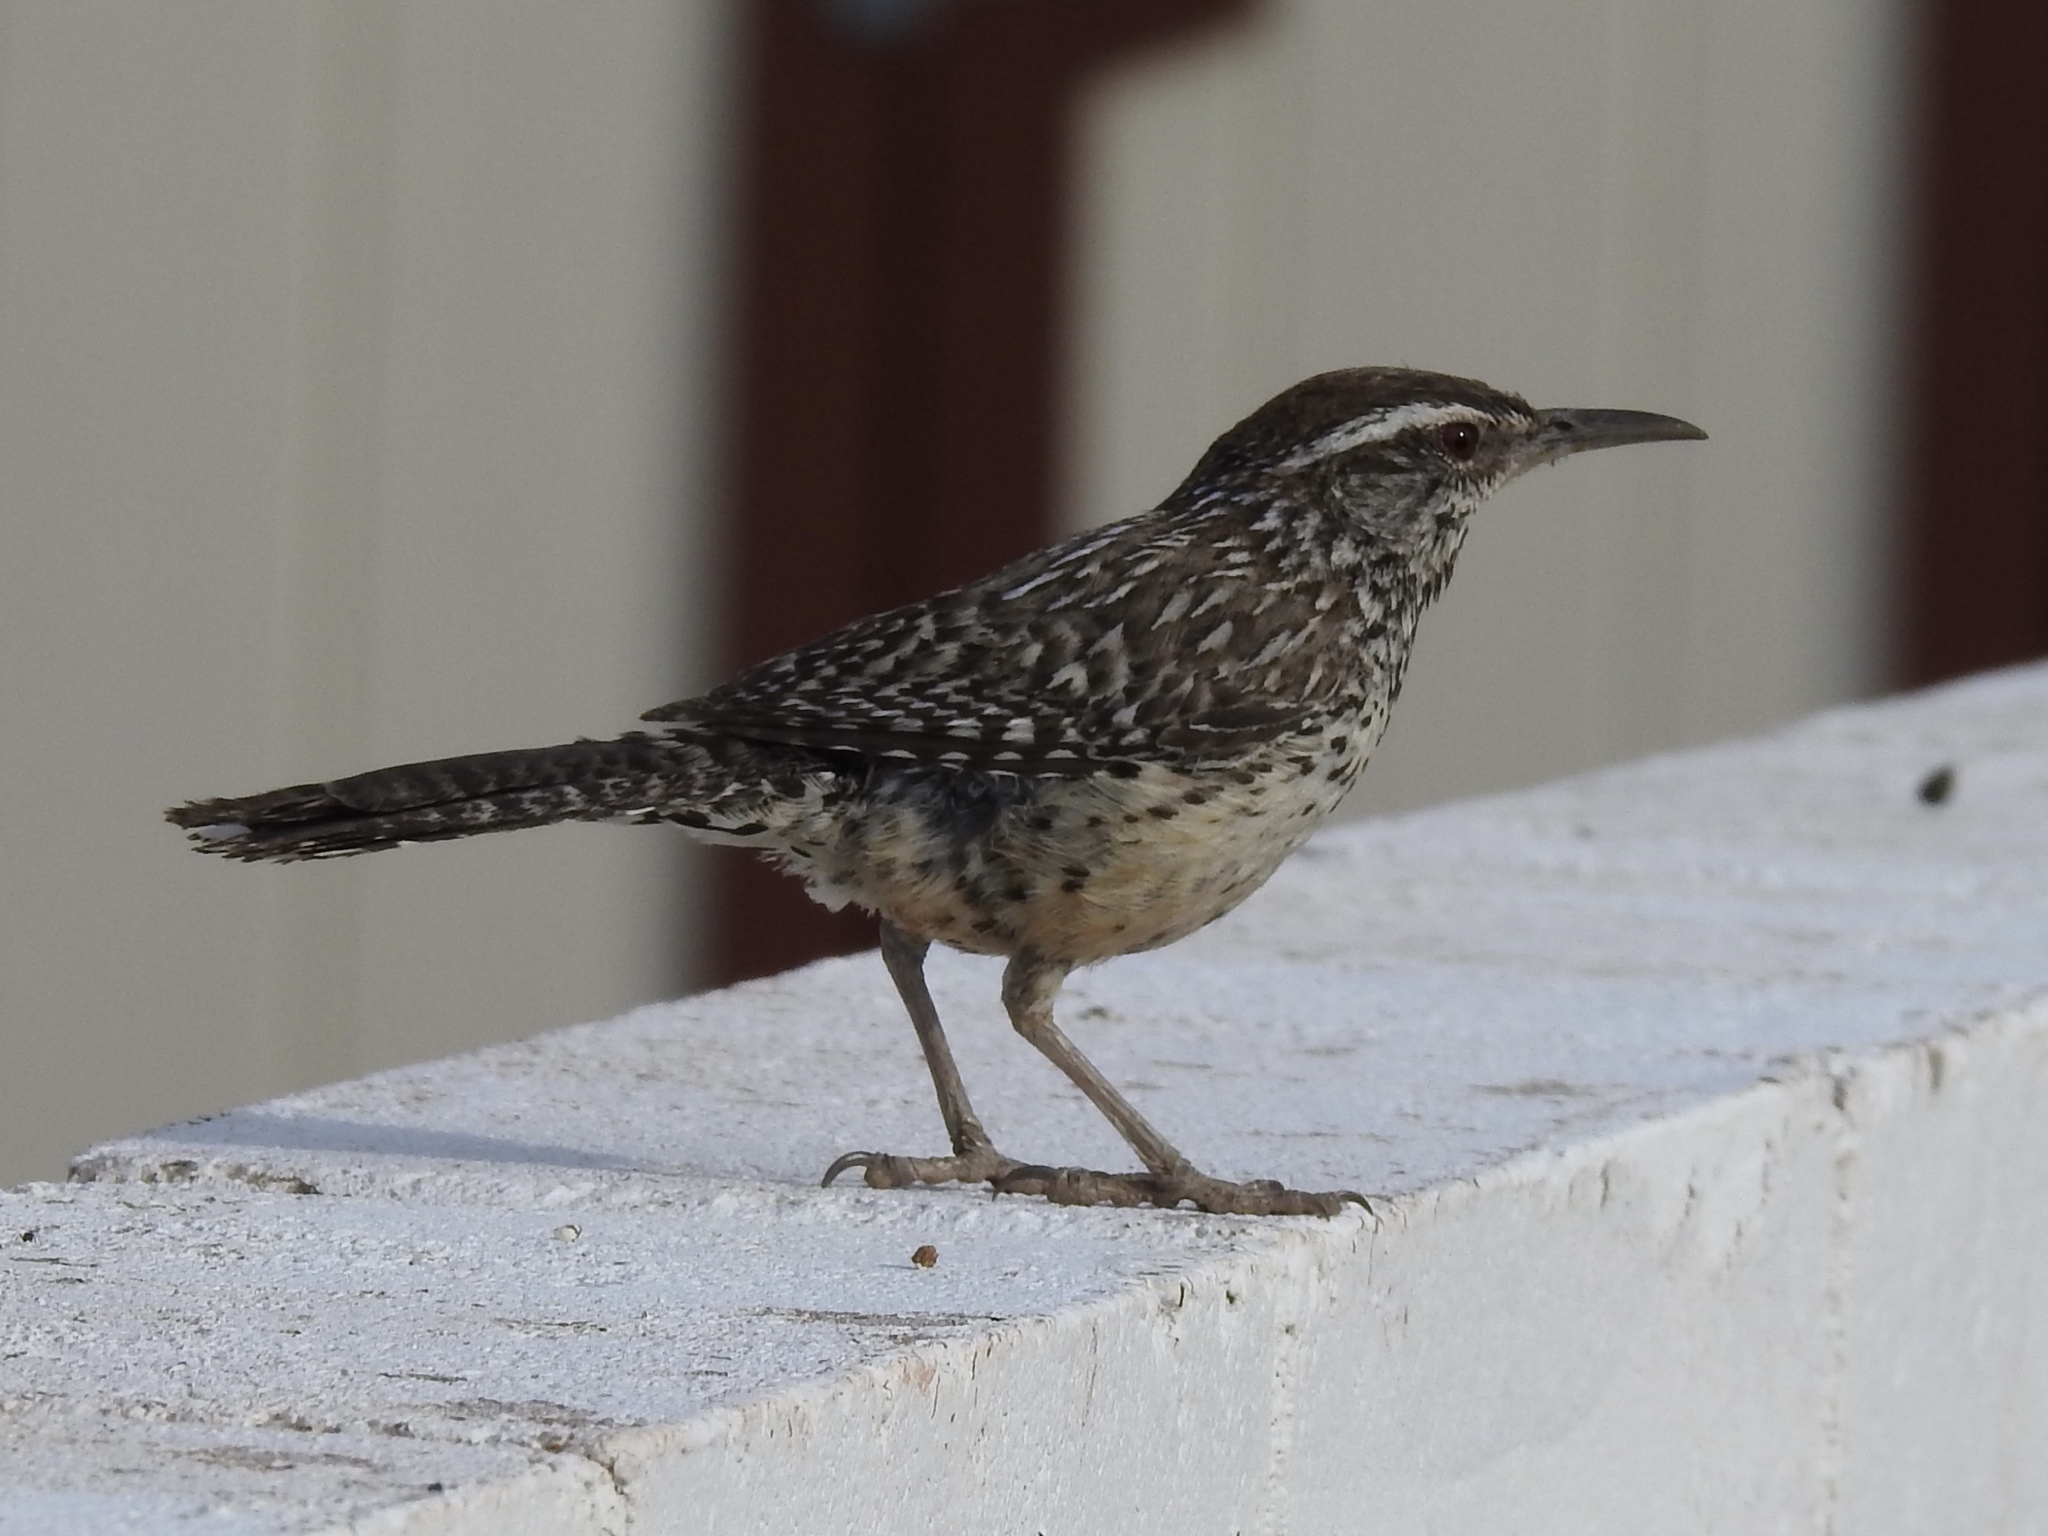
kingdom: Animalia
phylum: Chordata
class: Aves
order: Passeriformes
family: Troglodytidae
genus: Campylorhynchus
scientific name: Campylorhynchus brunneicapillus
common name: Cactus wren
